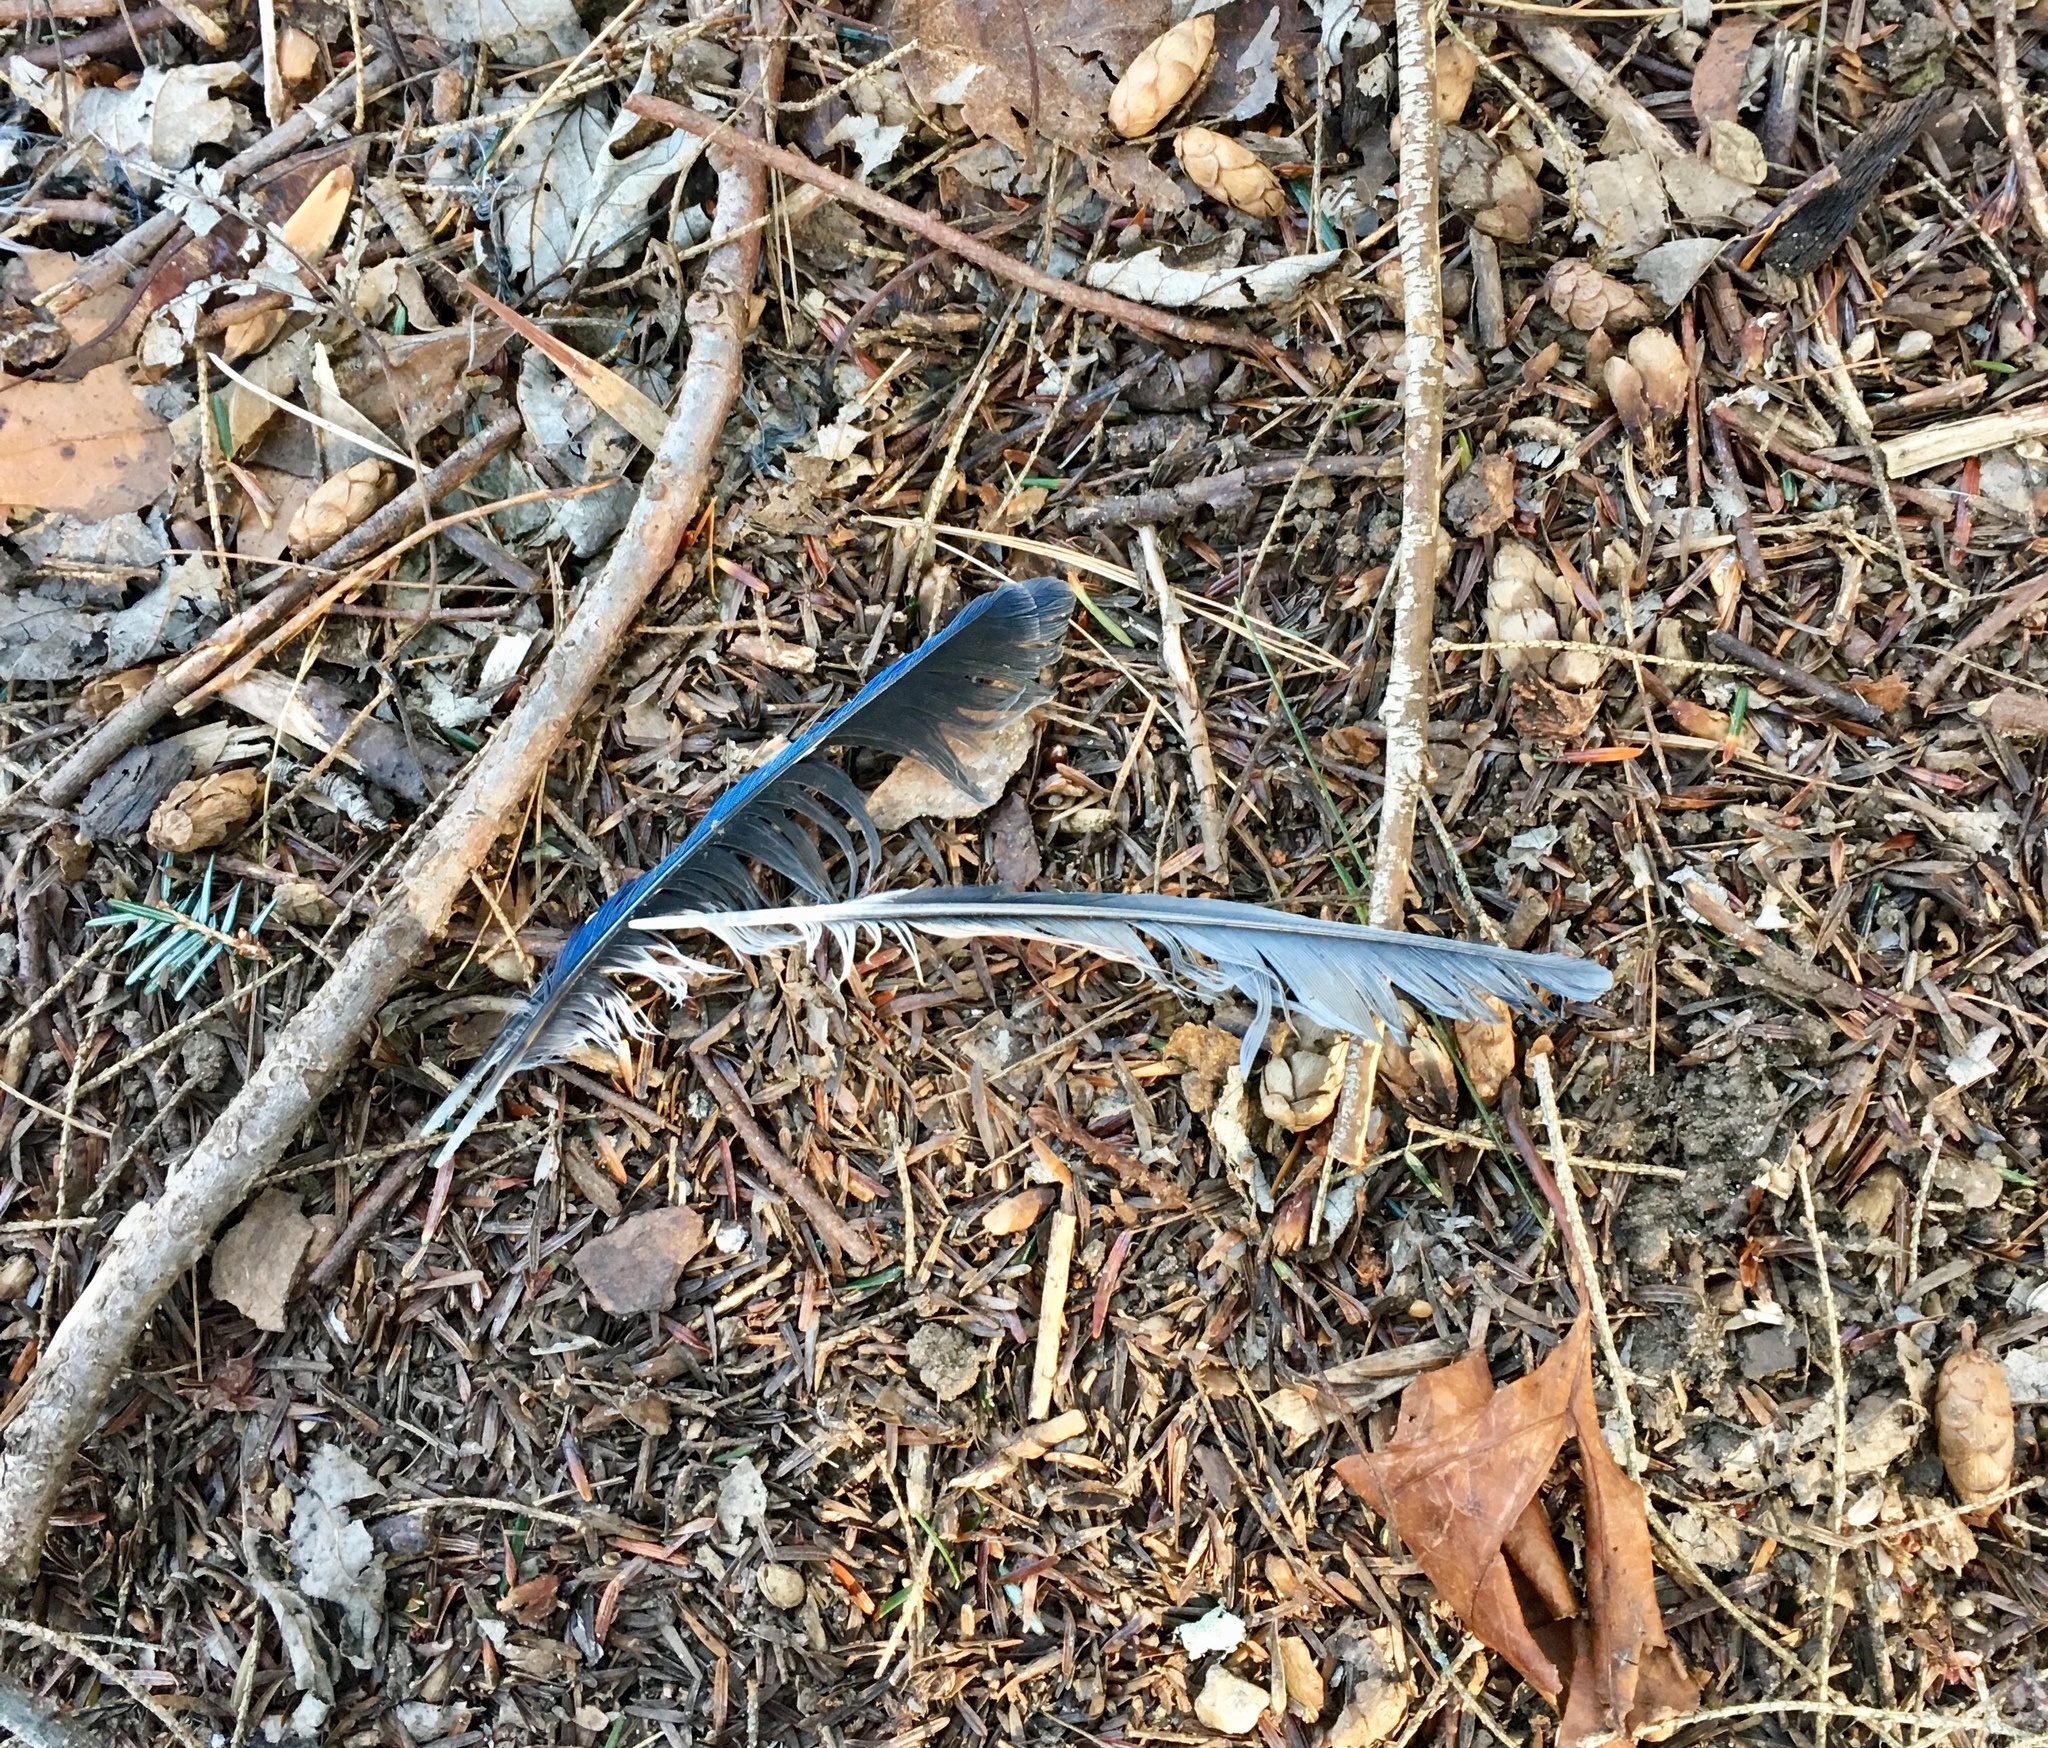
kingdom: Animalia
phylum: Chordata
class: Aves
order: Passeriformes
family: Corvidae
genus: Cyanocitta
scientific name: Cyanocitta cristata
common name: Blue jay
